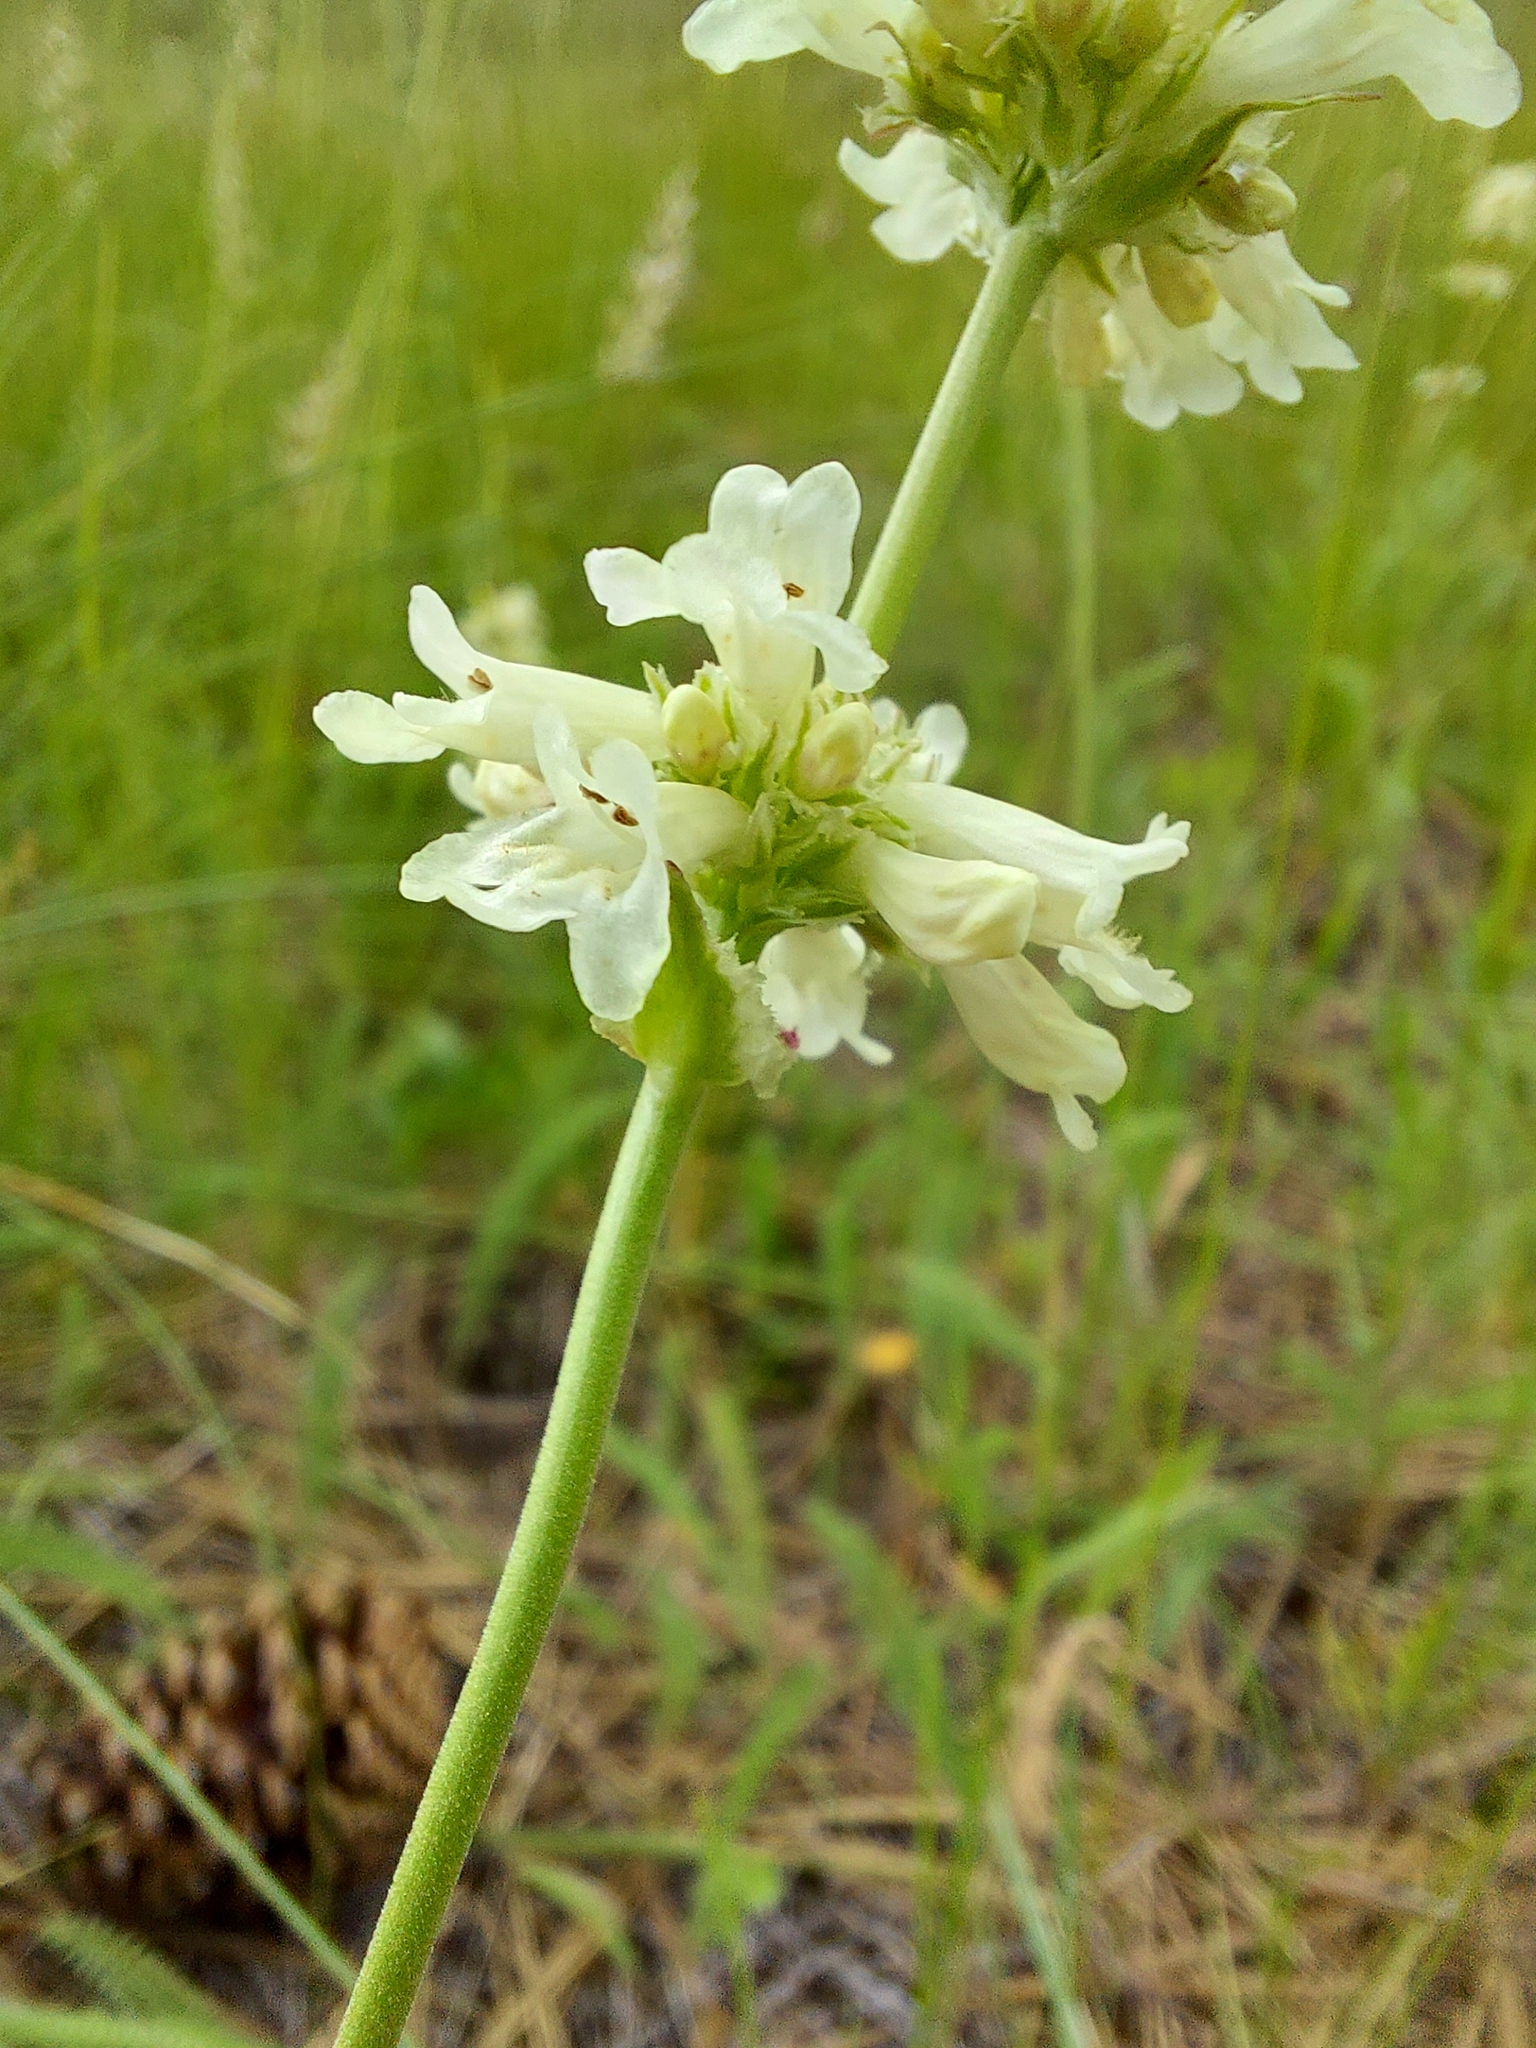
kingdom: Plantae
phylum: Tracheophyta
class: Magnoliopsida
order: Lamiales
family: Plantaginaceae
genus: Penstemon
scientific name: Penstemon confertus
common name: Lesser yellow beardtongue
